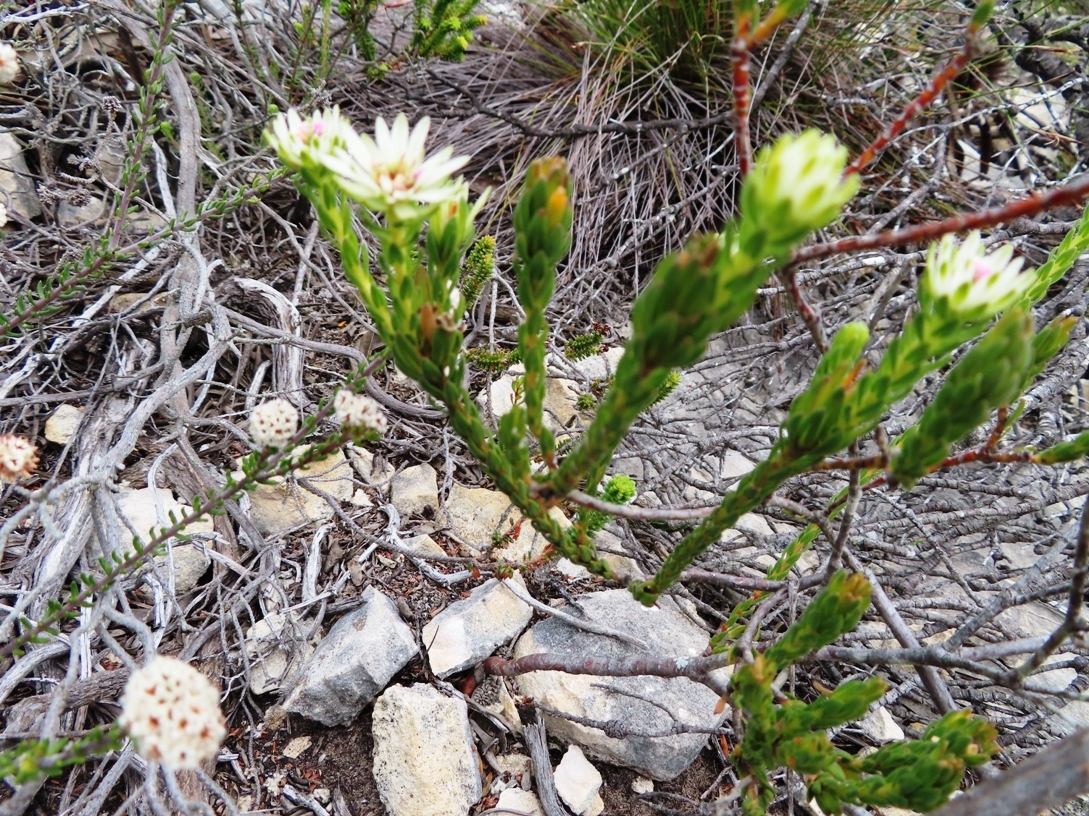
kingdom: Plantae
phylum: Tracheophyta
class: Magnoliopsida
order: Sapindales
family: Rutaceae
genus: Euchaetis
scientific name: Euchaetis longibracteata
